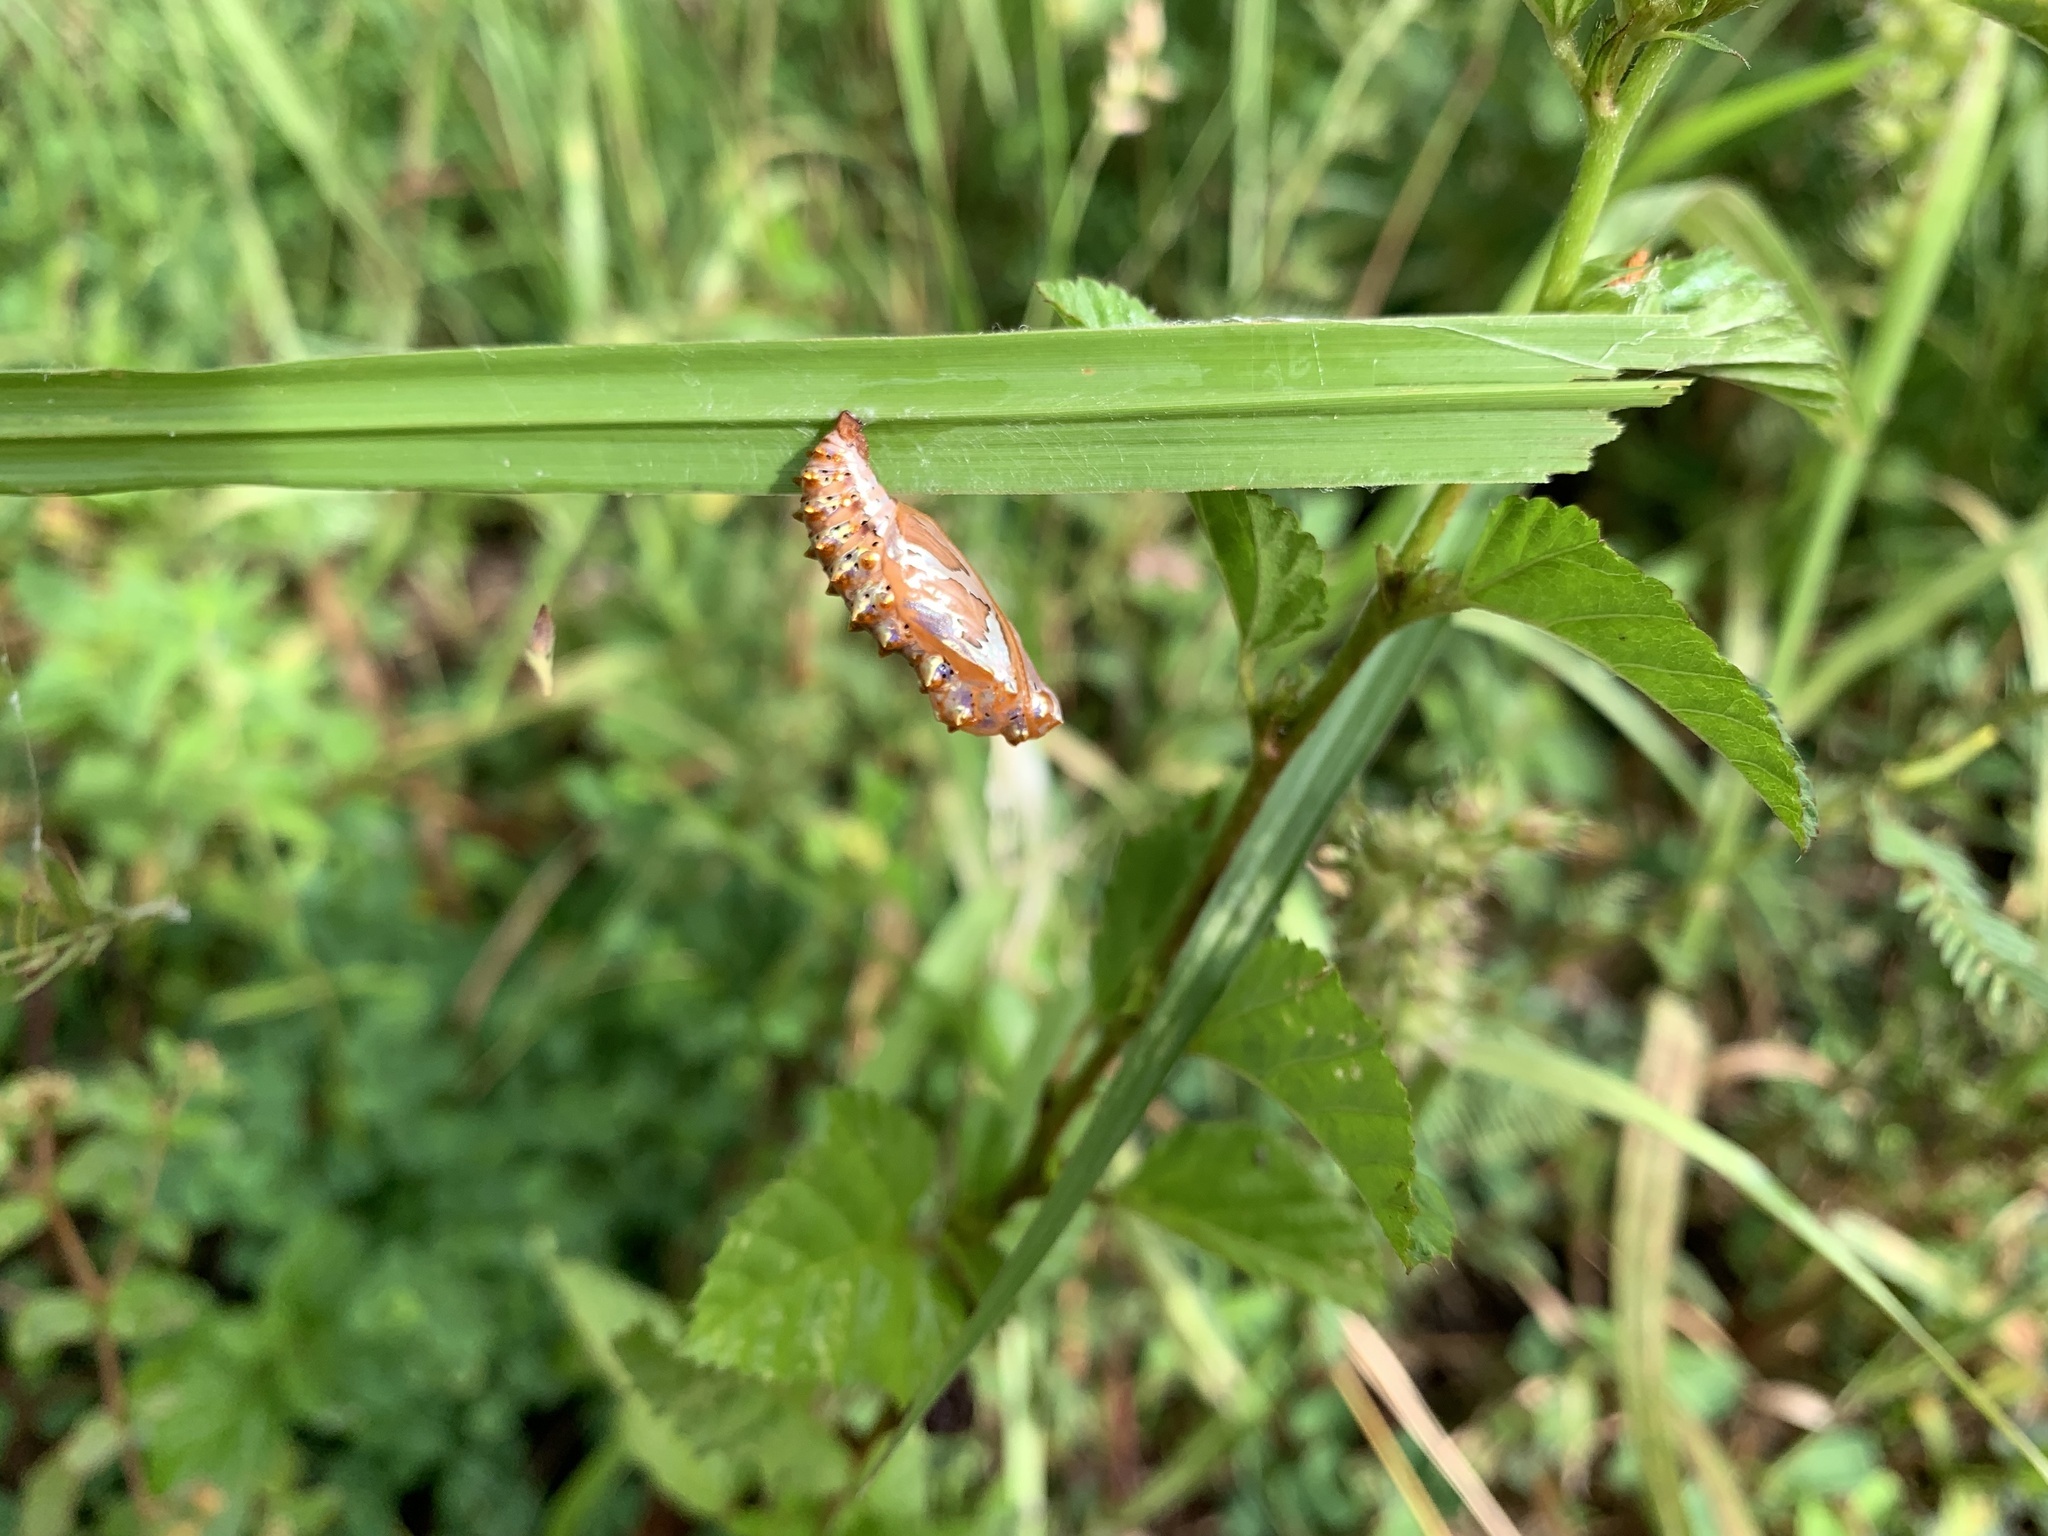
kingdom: Animalia
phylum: Arthropoda
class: Insecta
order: Lepidoptera
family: Nymphalidae
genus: Euptoieta
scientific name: Euptoieta hegesia
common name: Mexican fritillary
